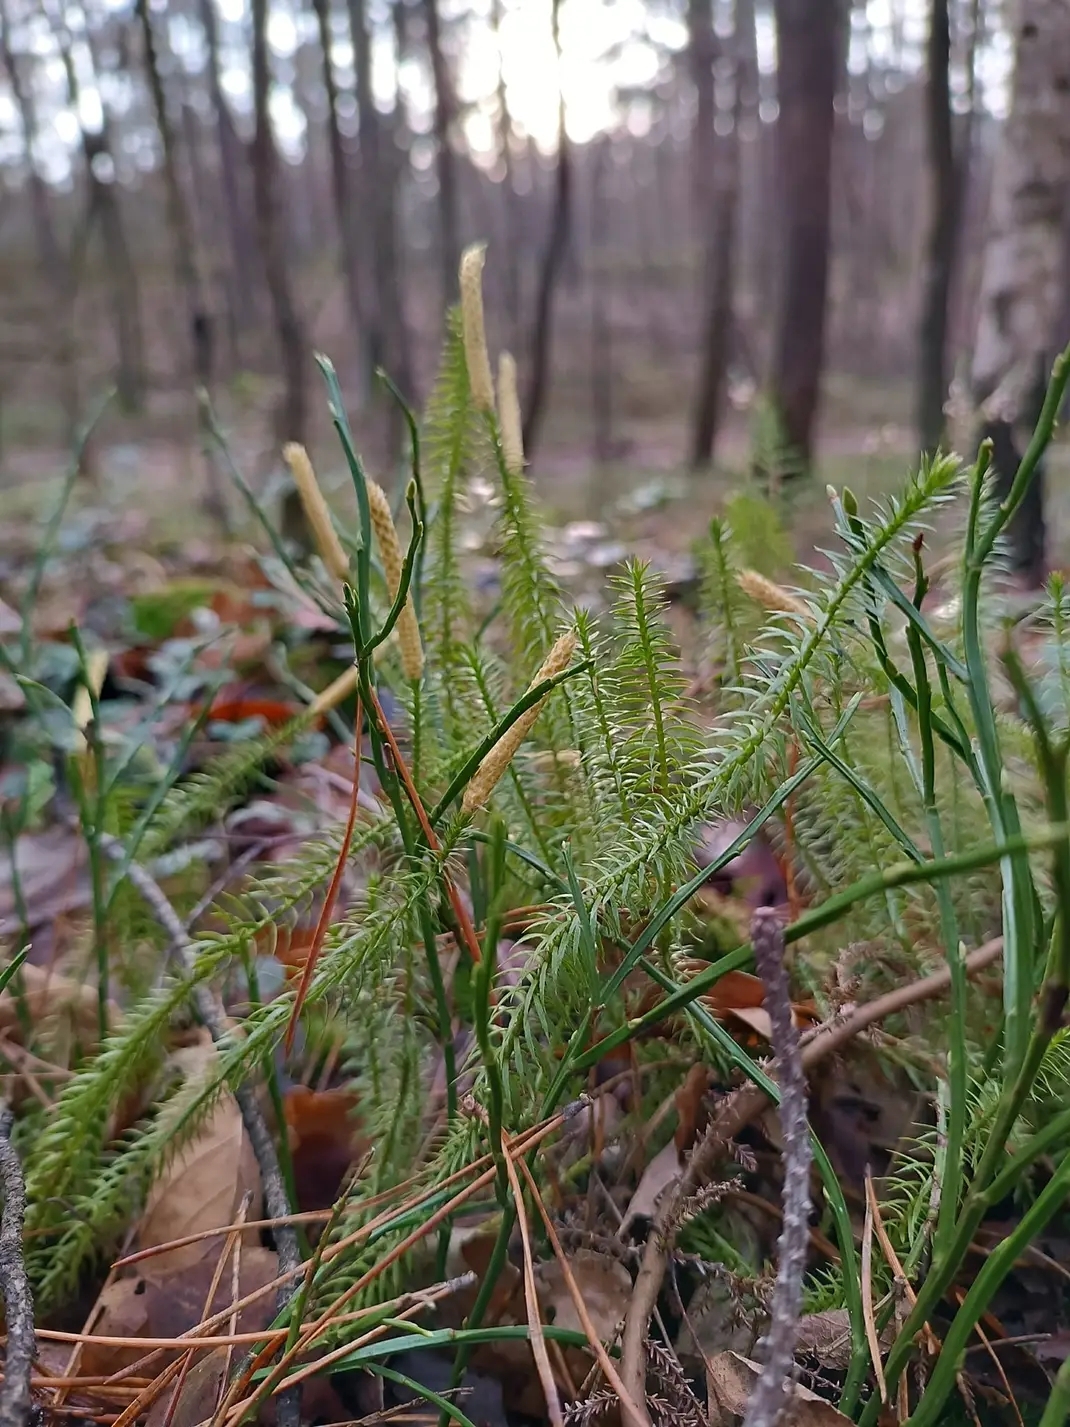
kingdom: Plantae
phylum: Tracheophyta
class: Lycopodiopsida
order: Lycopodiales
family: Lycopodiaceae
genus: Spinulum
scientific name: Spinulum annotinum
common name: Interrupted club-moss
